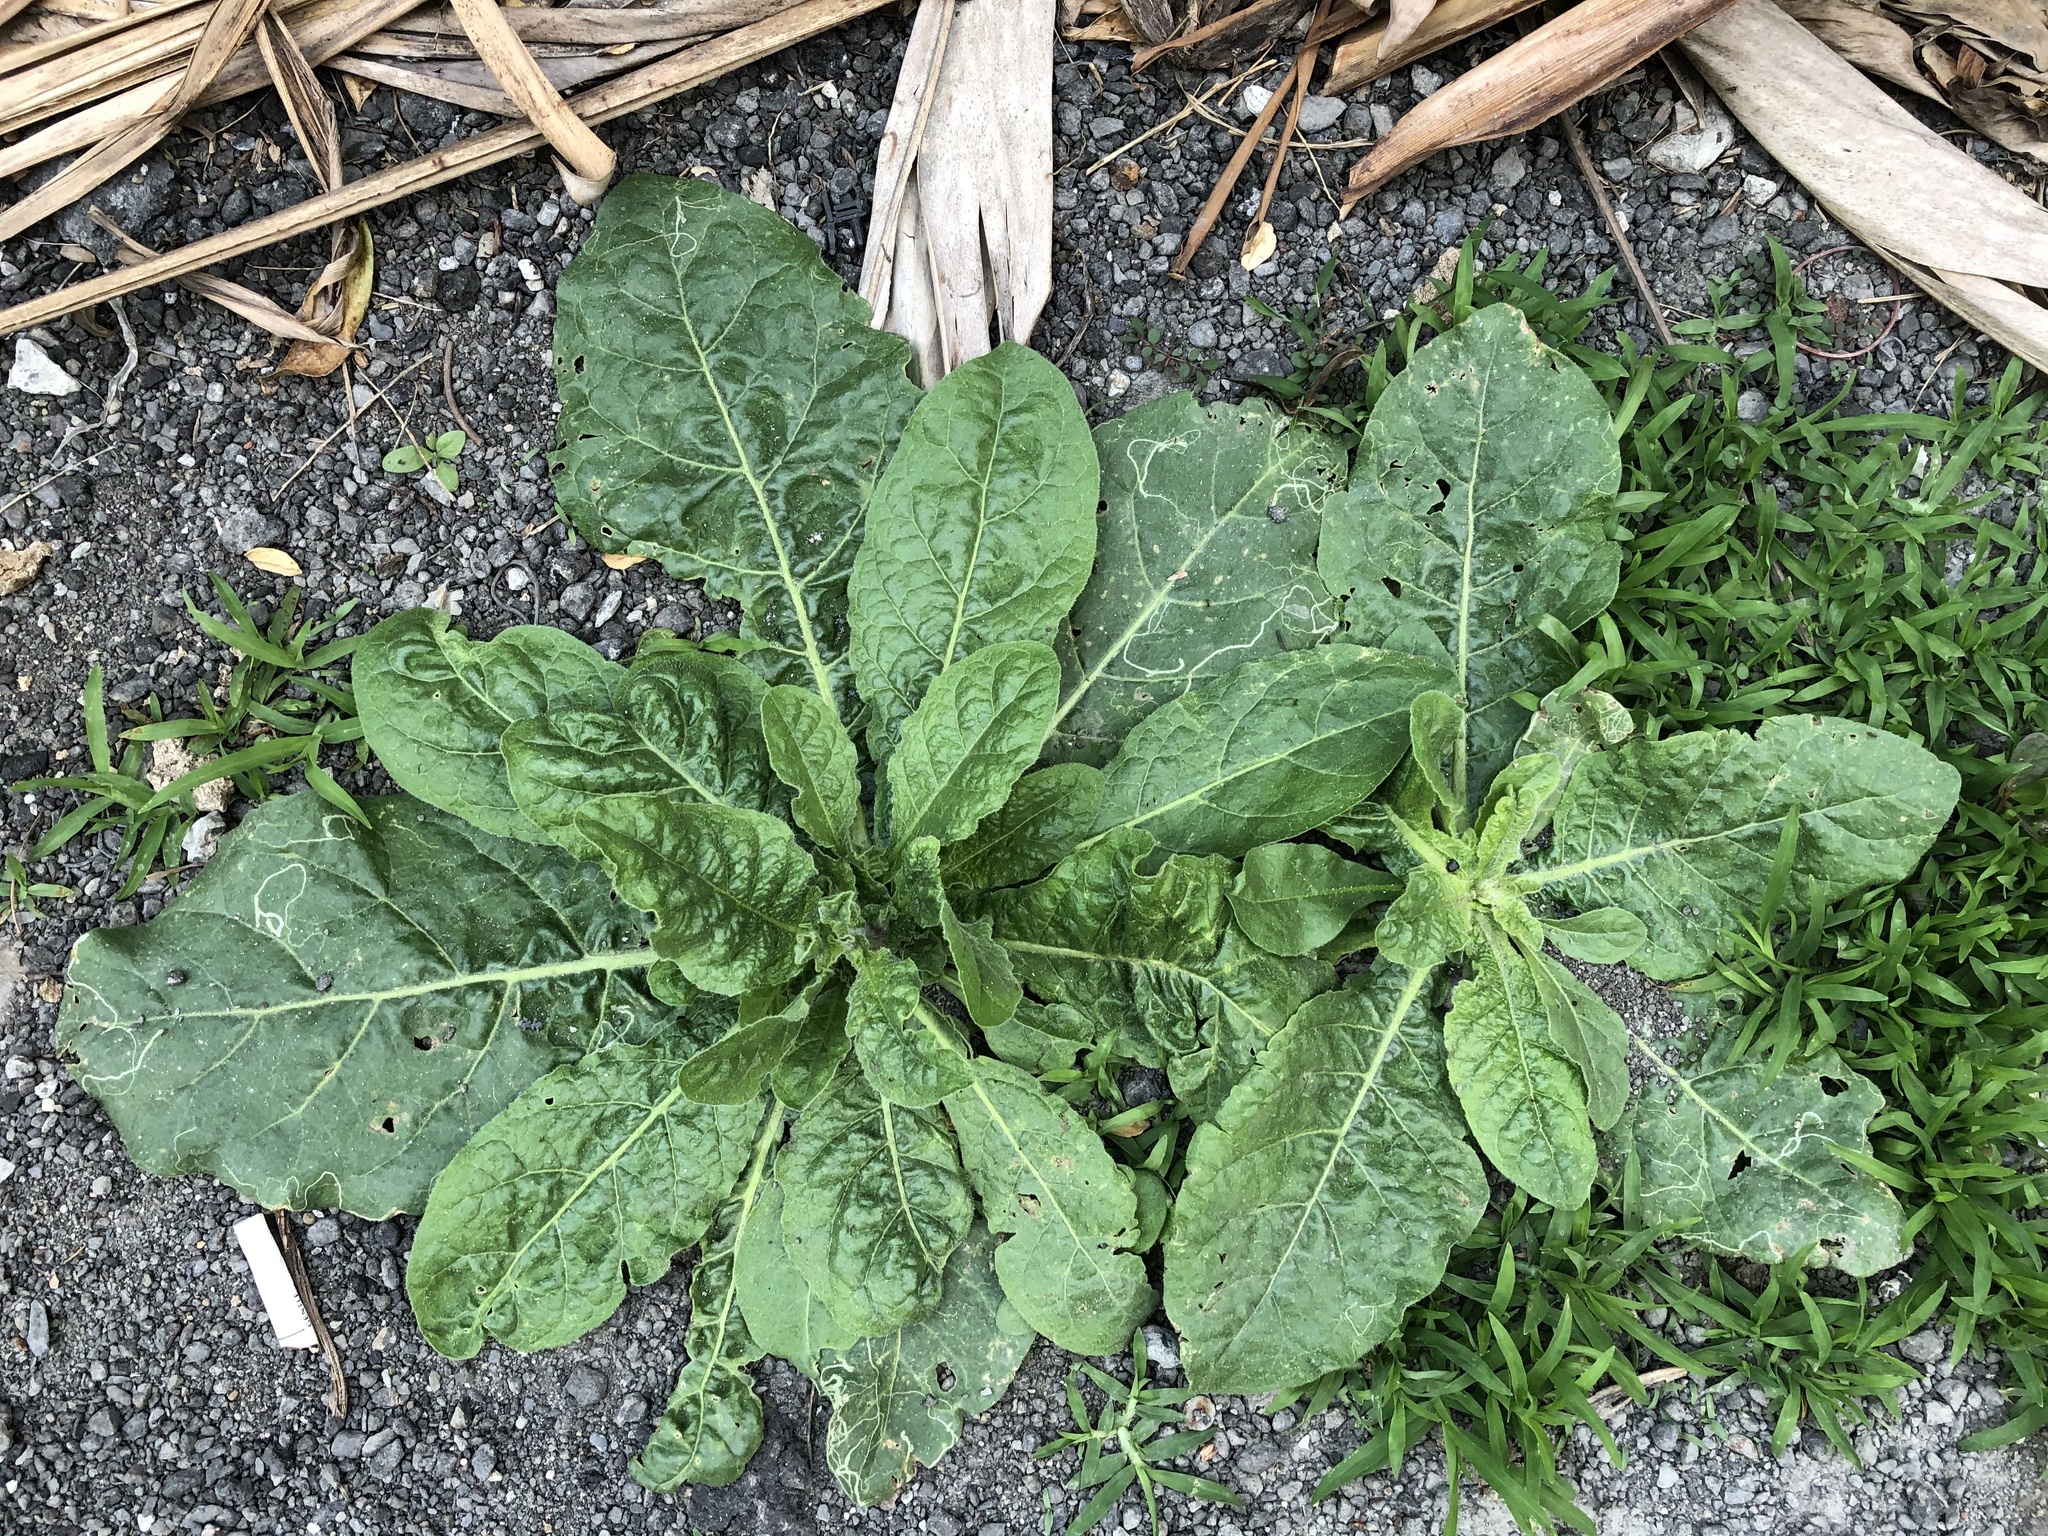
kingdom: Plantae
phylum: Tracheophyta
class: Magnoliopsida
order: Solanales
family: Solanaceae
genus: Nicotiana
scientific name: Nicotiana plumbaginifolia
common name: Tex-mex tobacco
